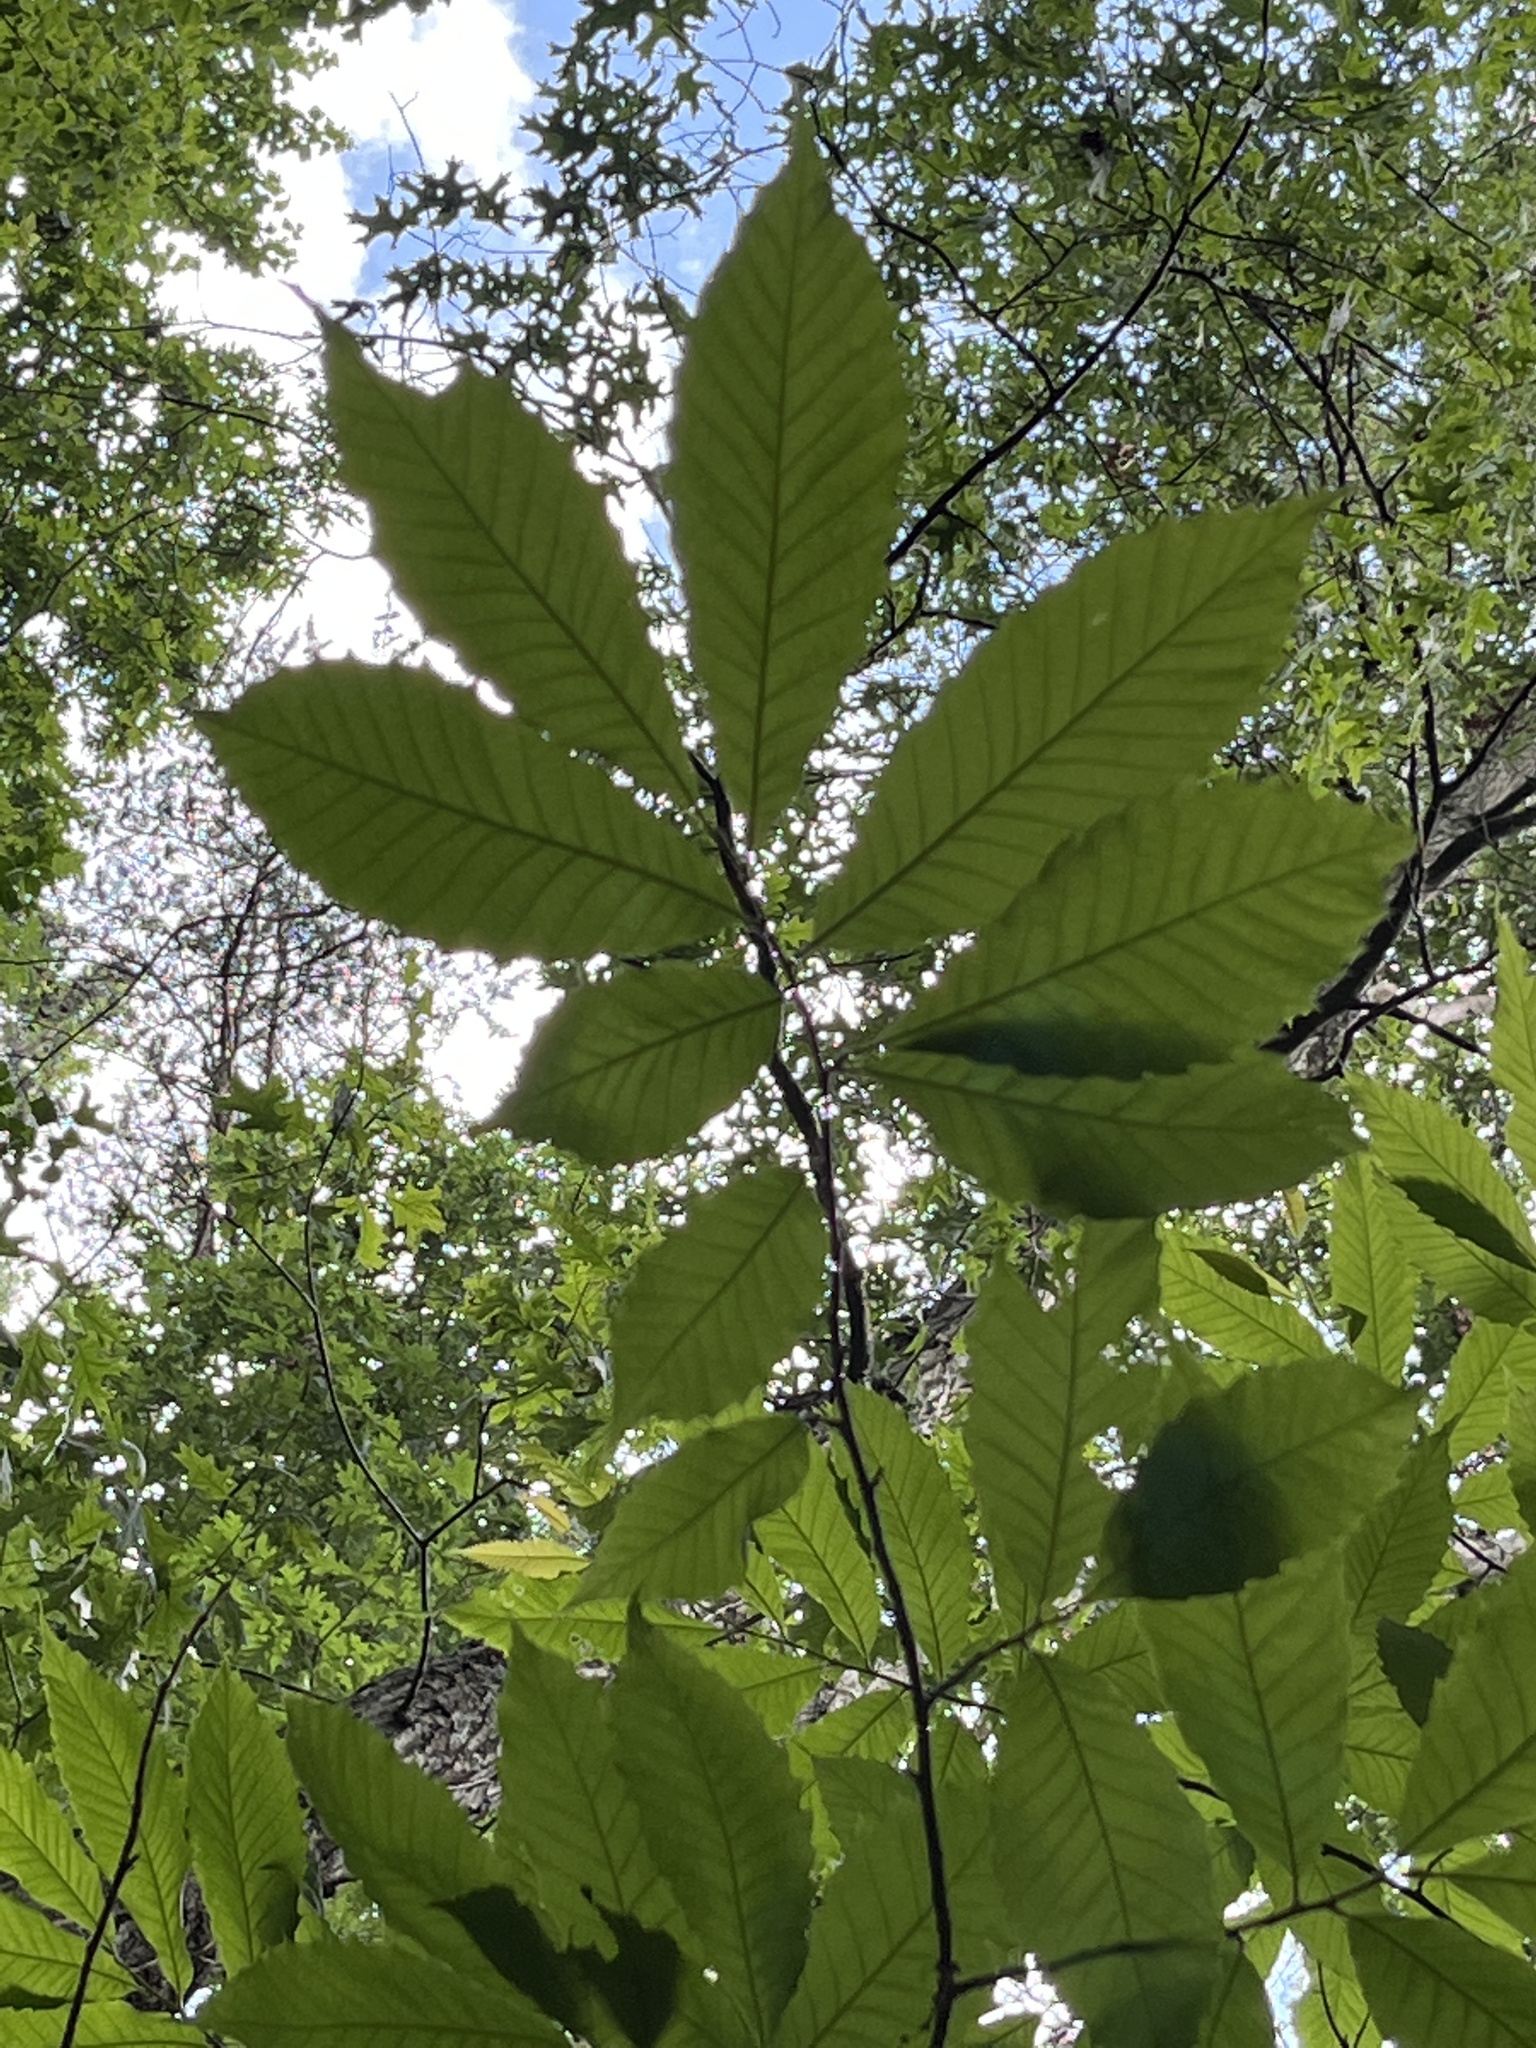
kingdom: Plantae
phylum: Tracheophyta
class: Magnoliopsida
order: Fagales
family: Fagaceae
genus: Castanea
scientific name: Castanea dentata
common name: American chestnut
